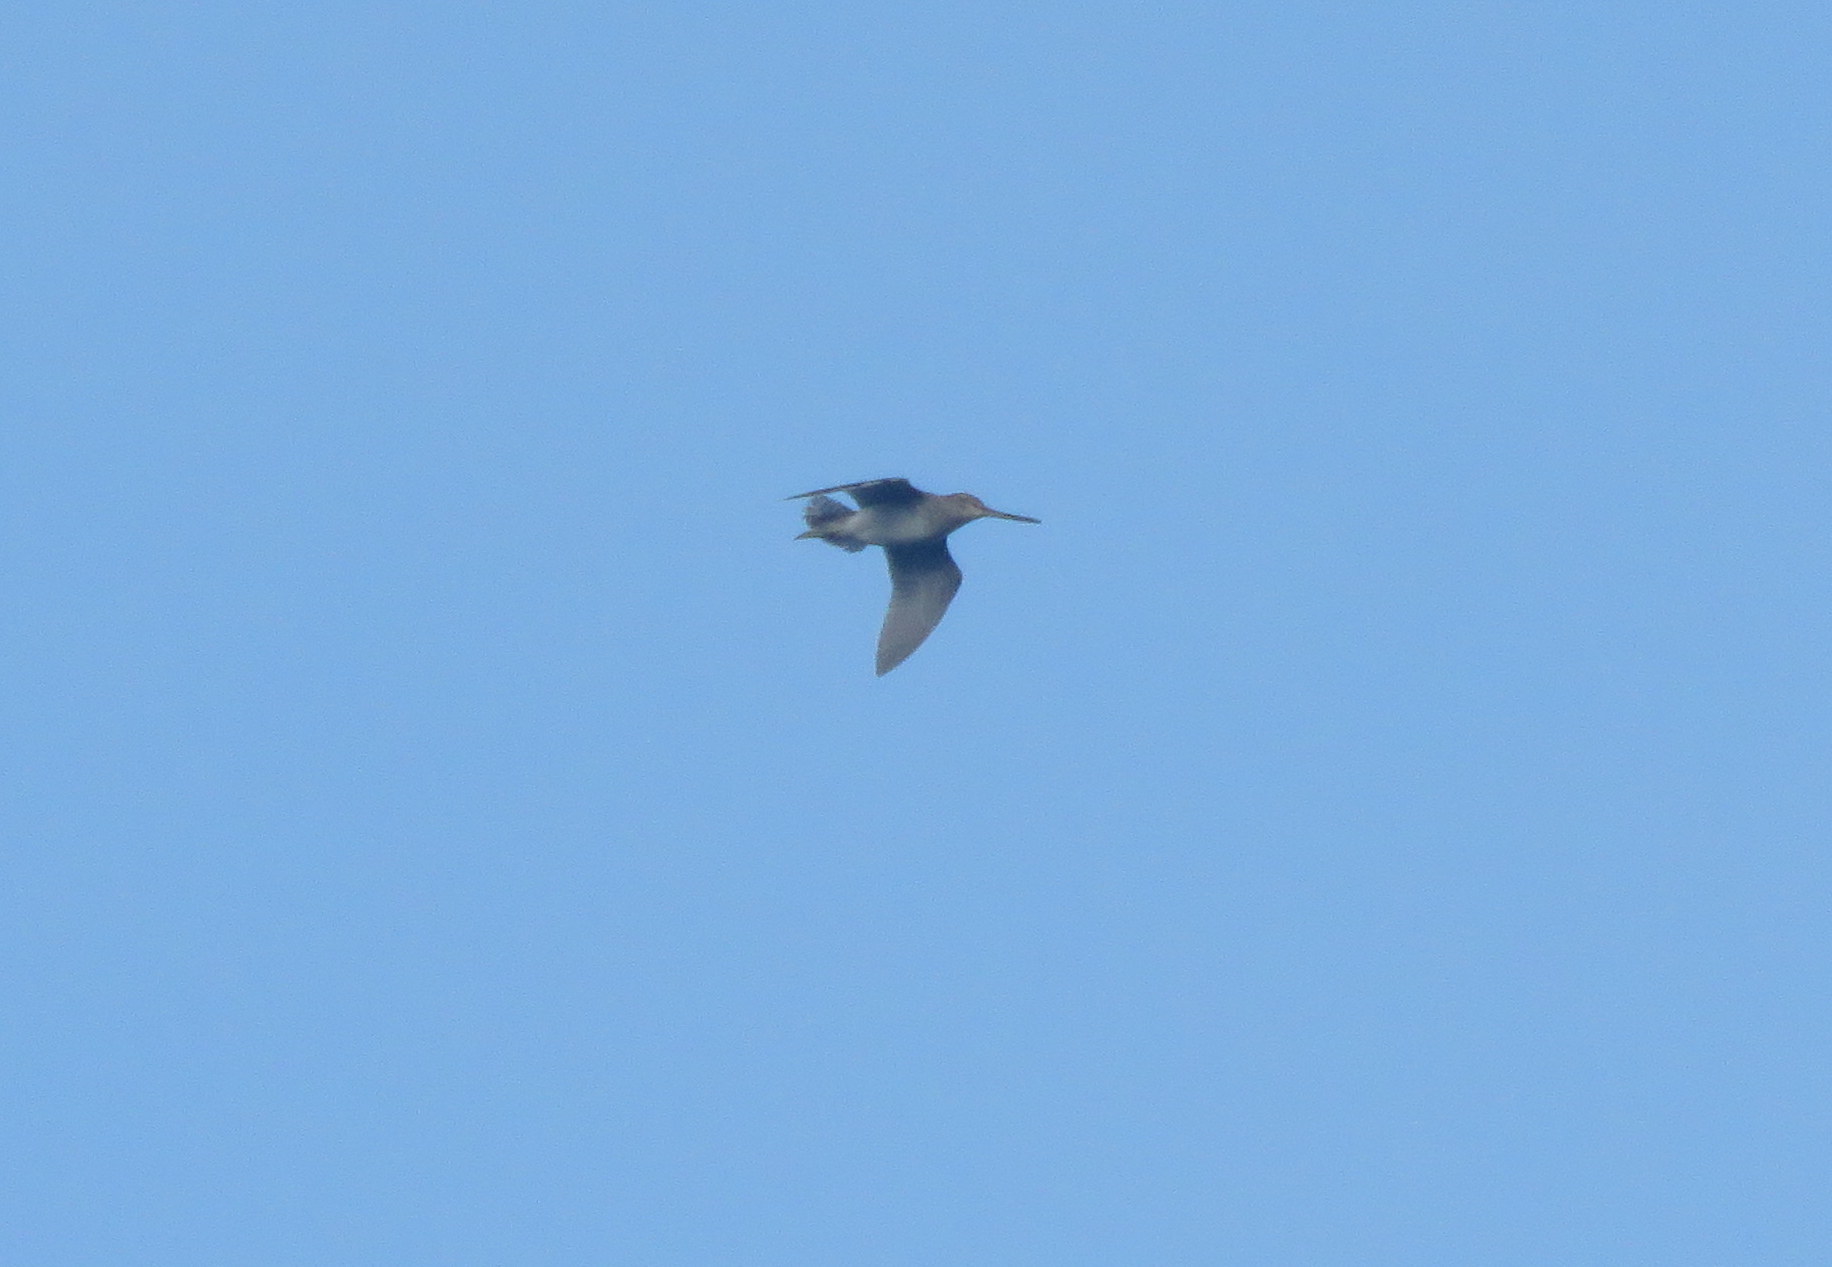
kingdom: Animalia
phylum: Chordata
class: Aves
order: Charadriiformes
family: Scolopacidae
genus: Gallinago
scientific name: Gallinago paraguaiae
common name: South american snipe
